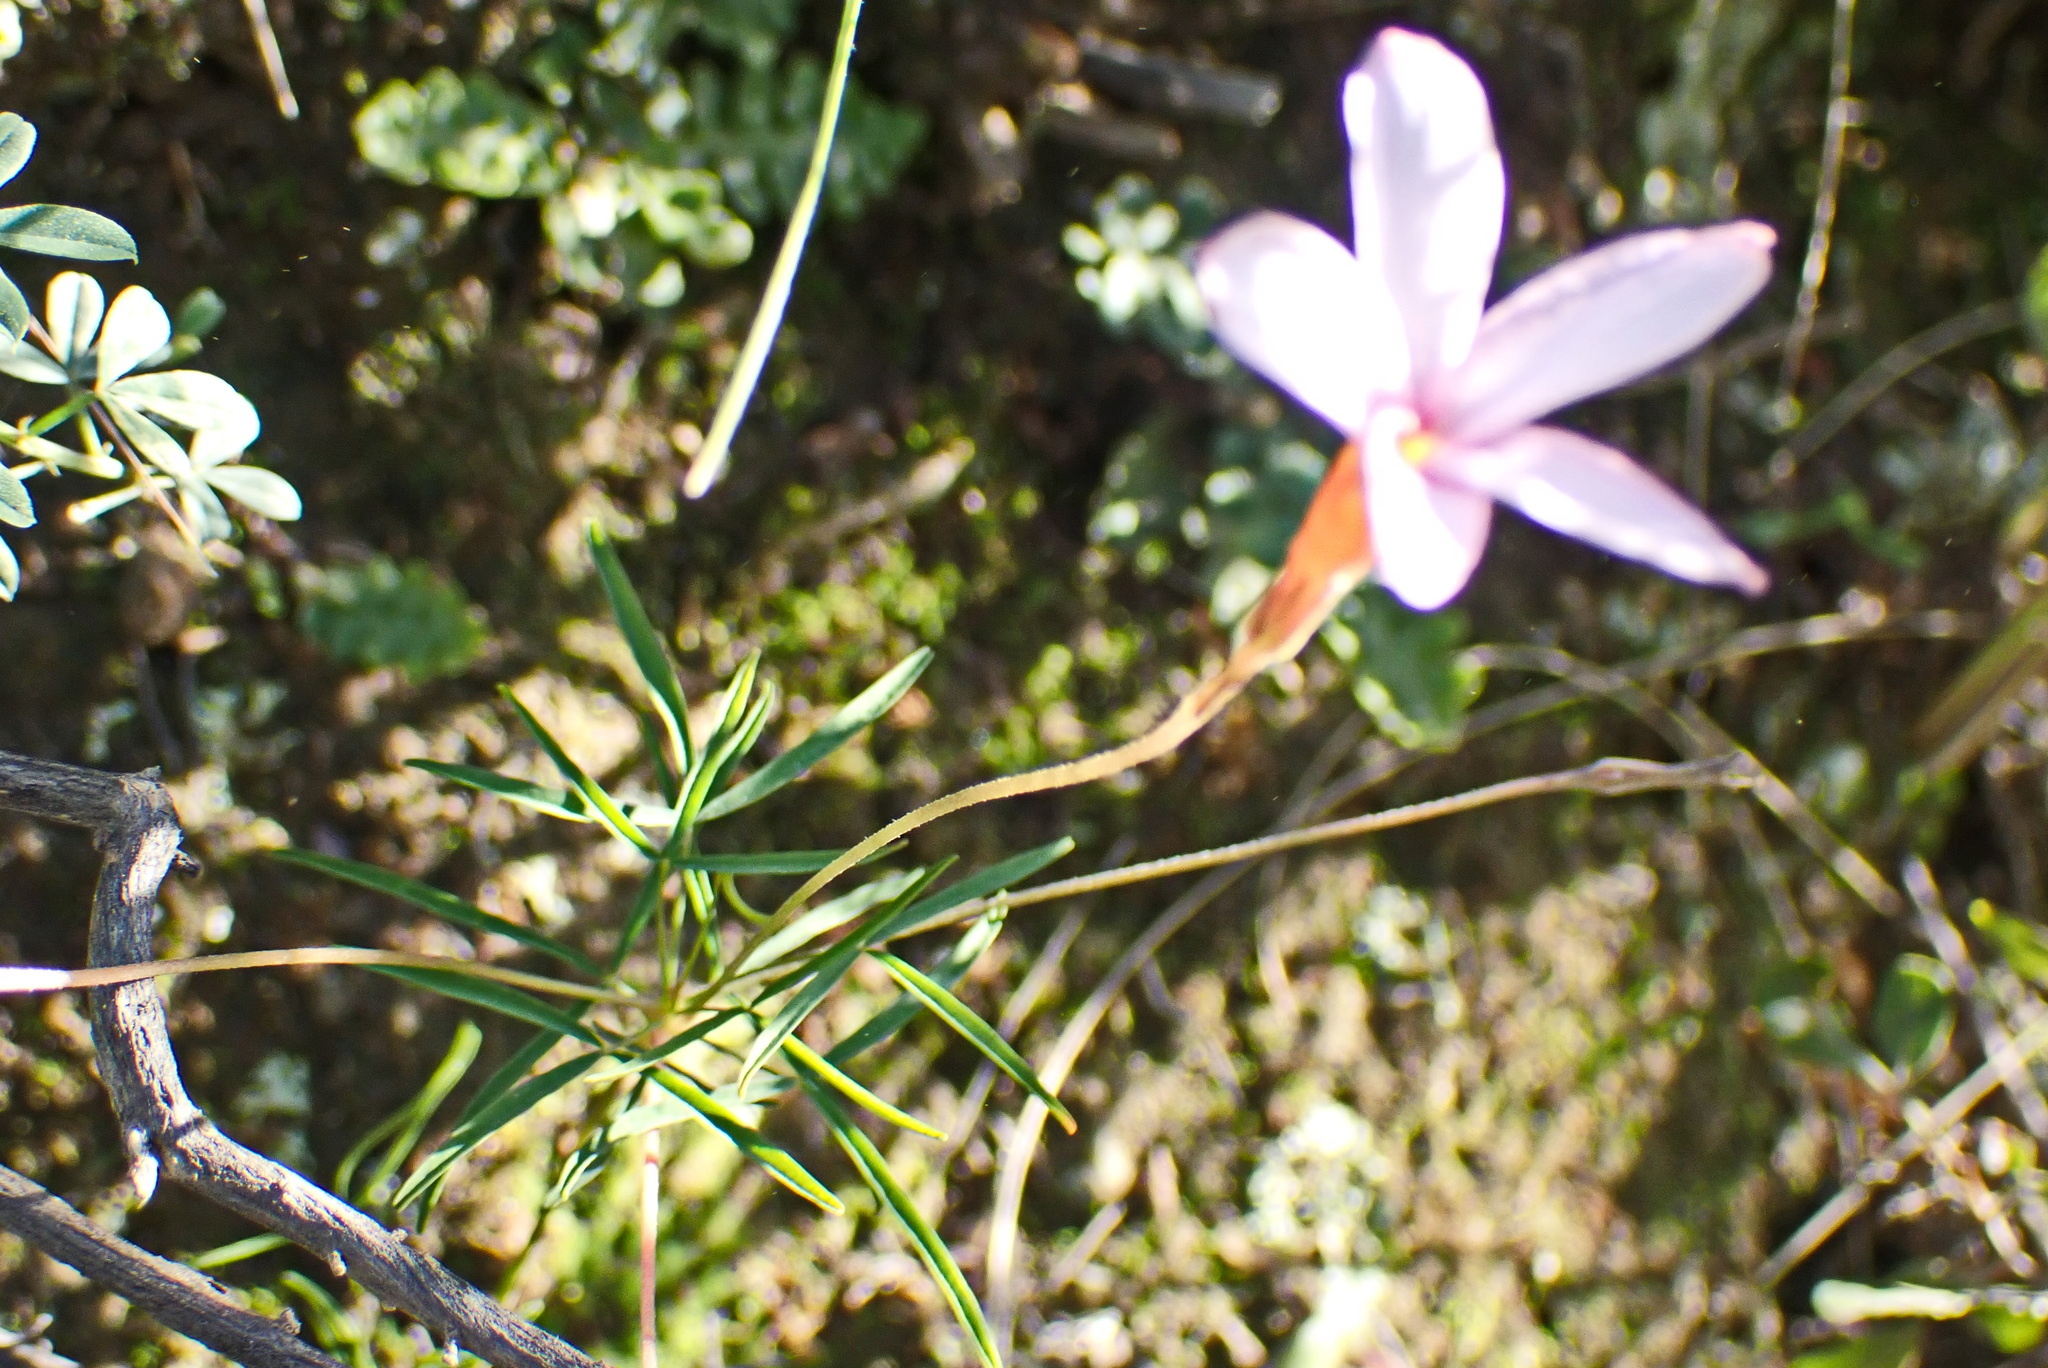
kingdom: Plantae
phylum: Tracheophyta
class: Magnoliopsida
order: Oxalidales
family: Oxalidaceae
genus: Oxalis
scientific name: Oxalis ciliaris
